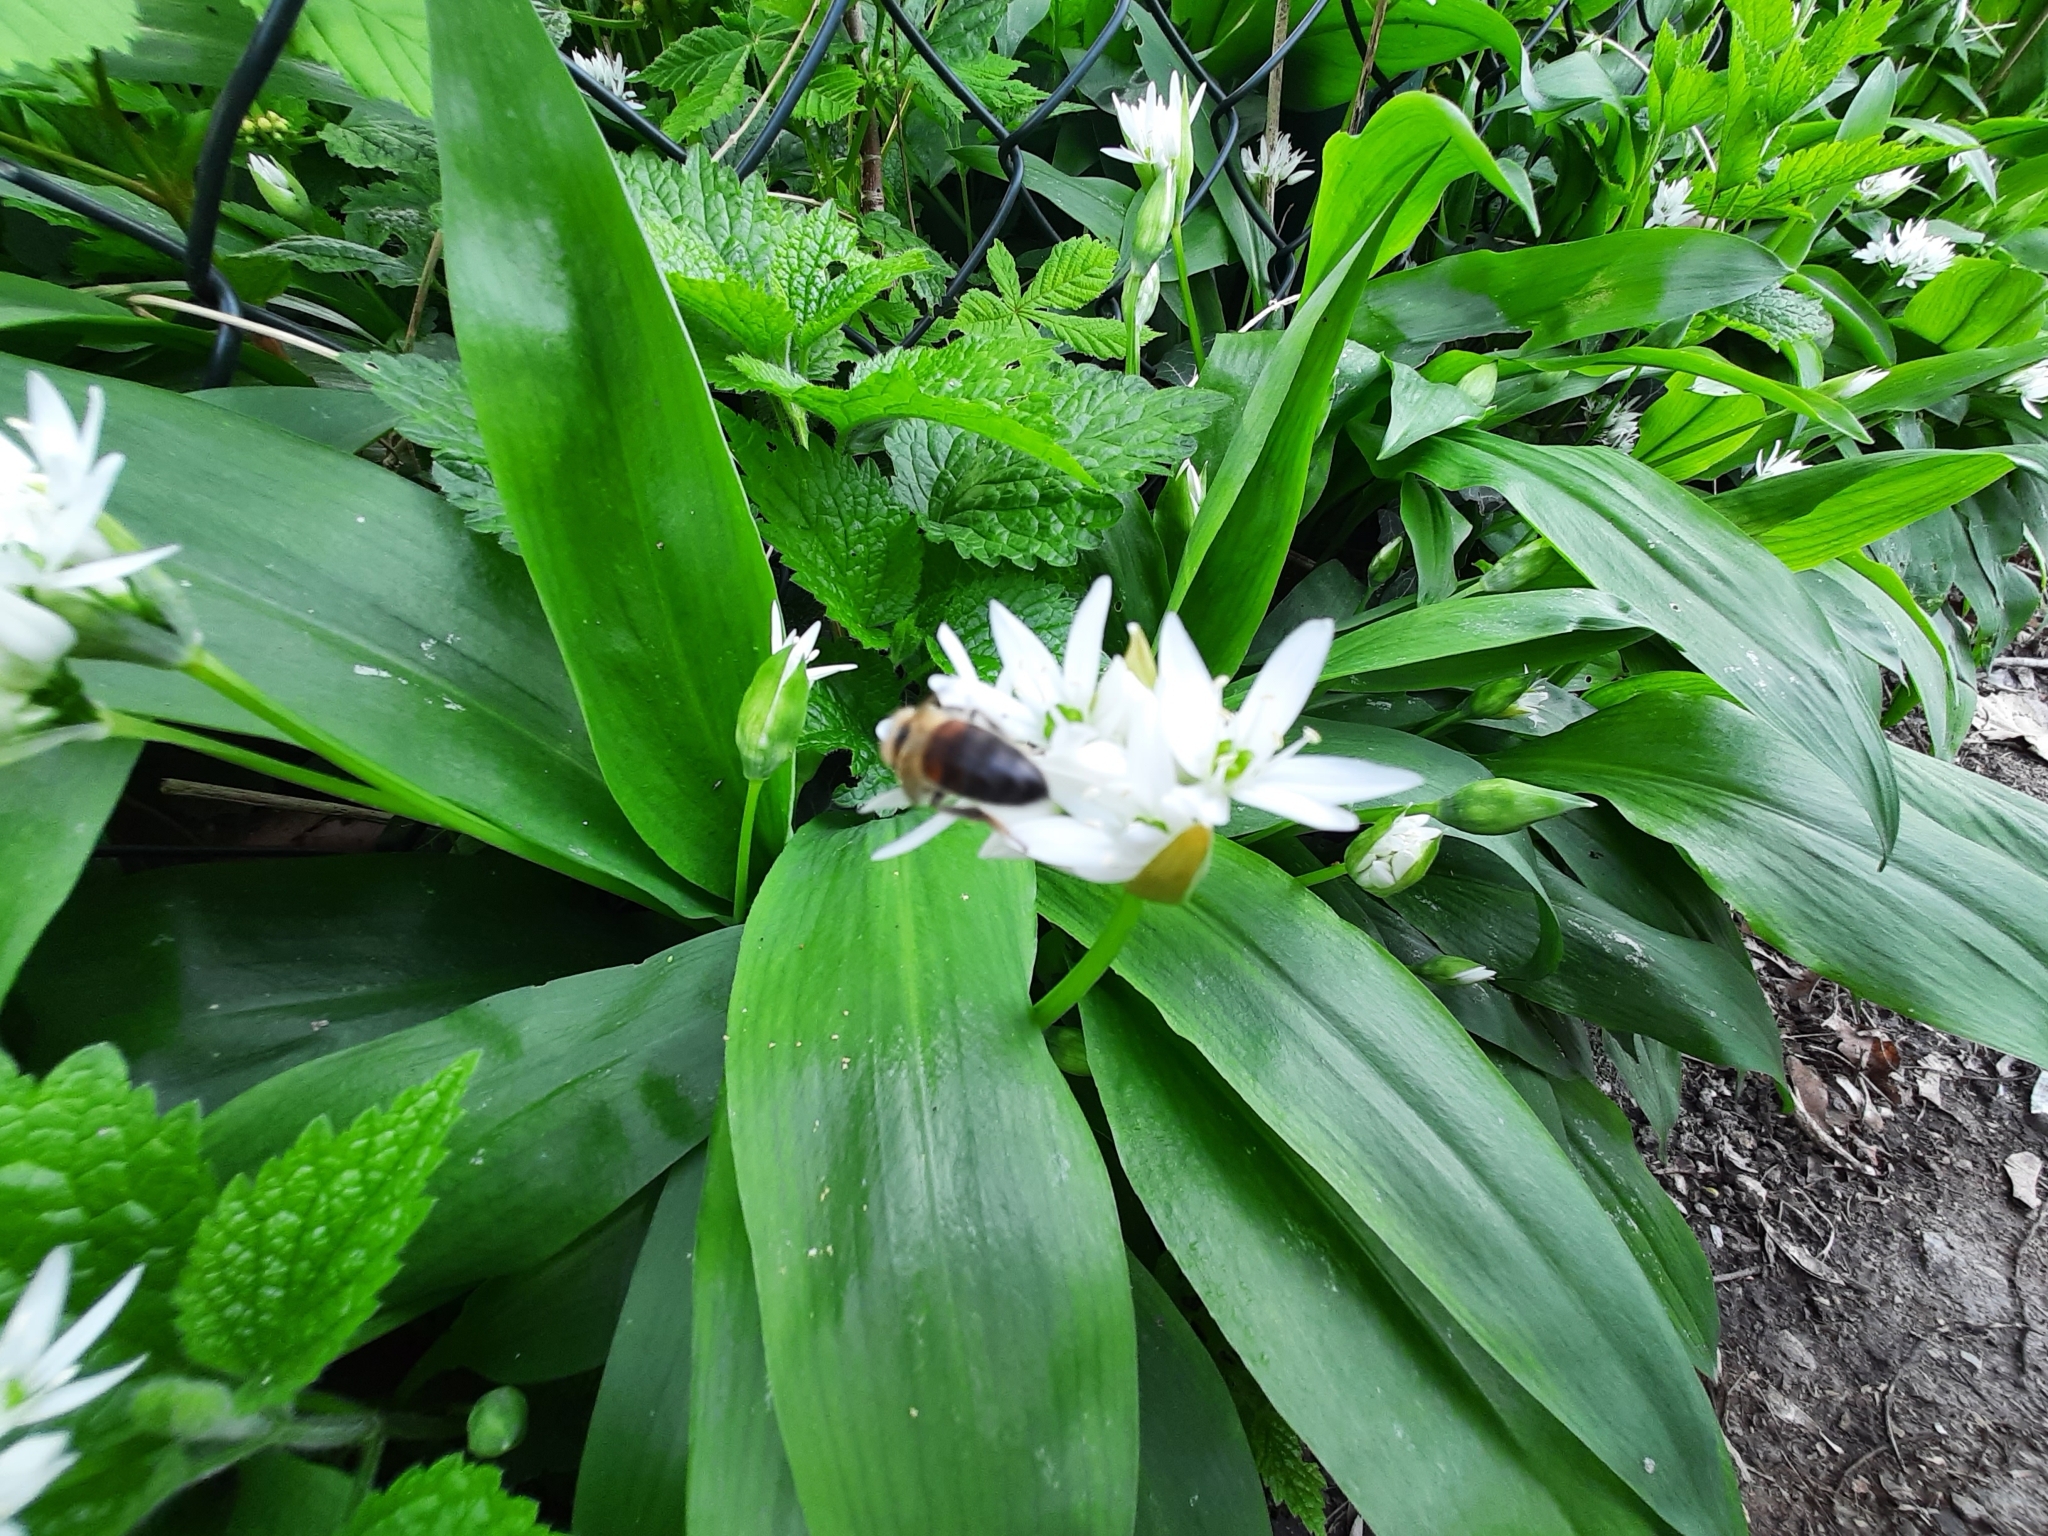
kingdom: Plantae
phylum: Tracheophyta
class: Liliopsida
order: Asparagales
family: Amaryllidaceae
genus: Allium
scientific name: Allium ursinum
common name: Ramsons
